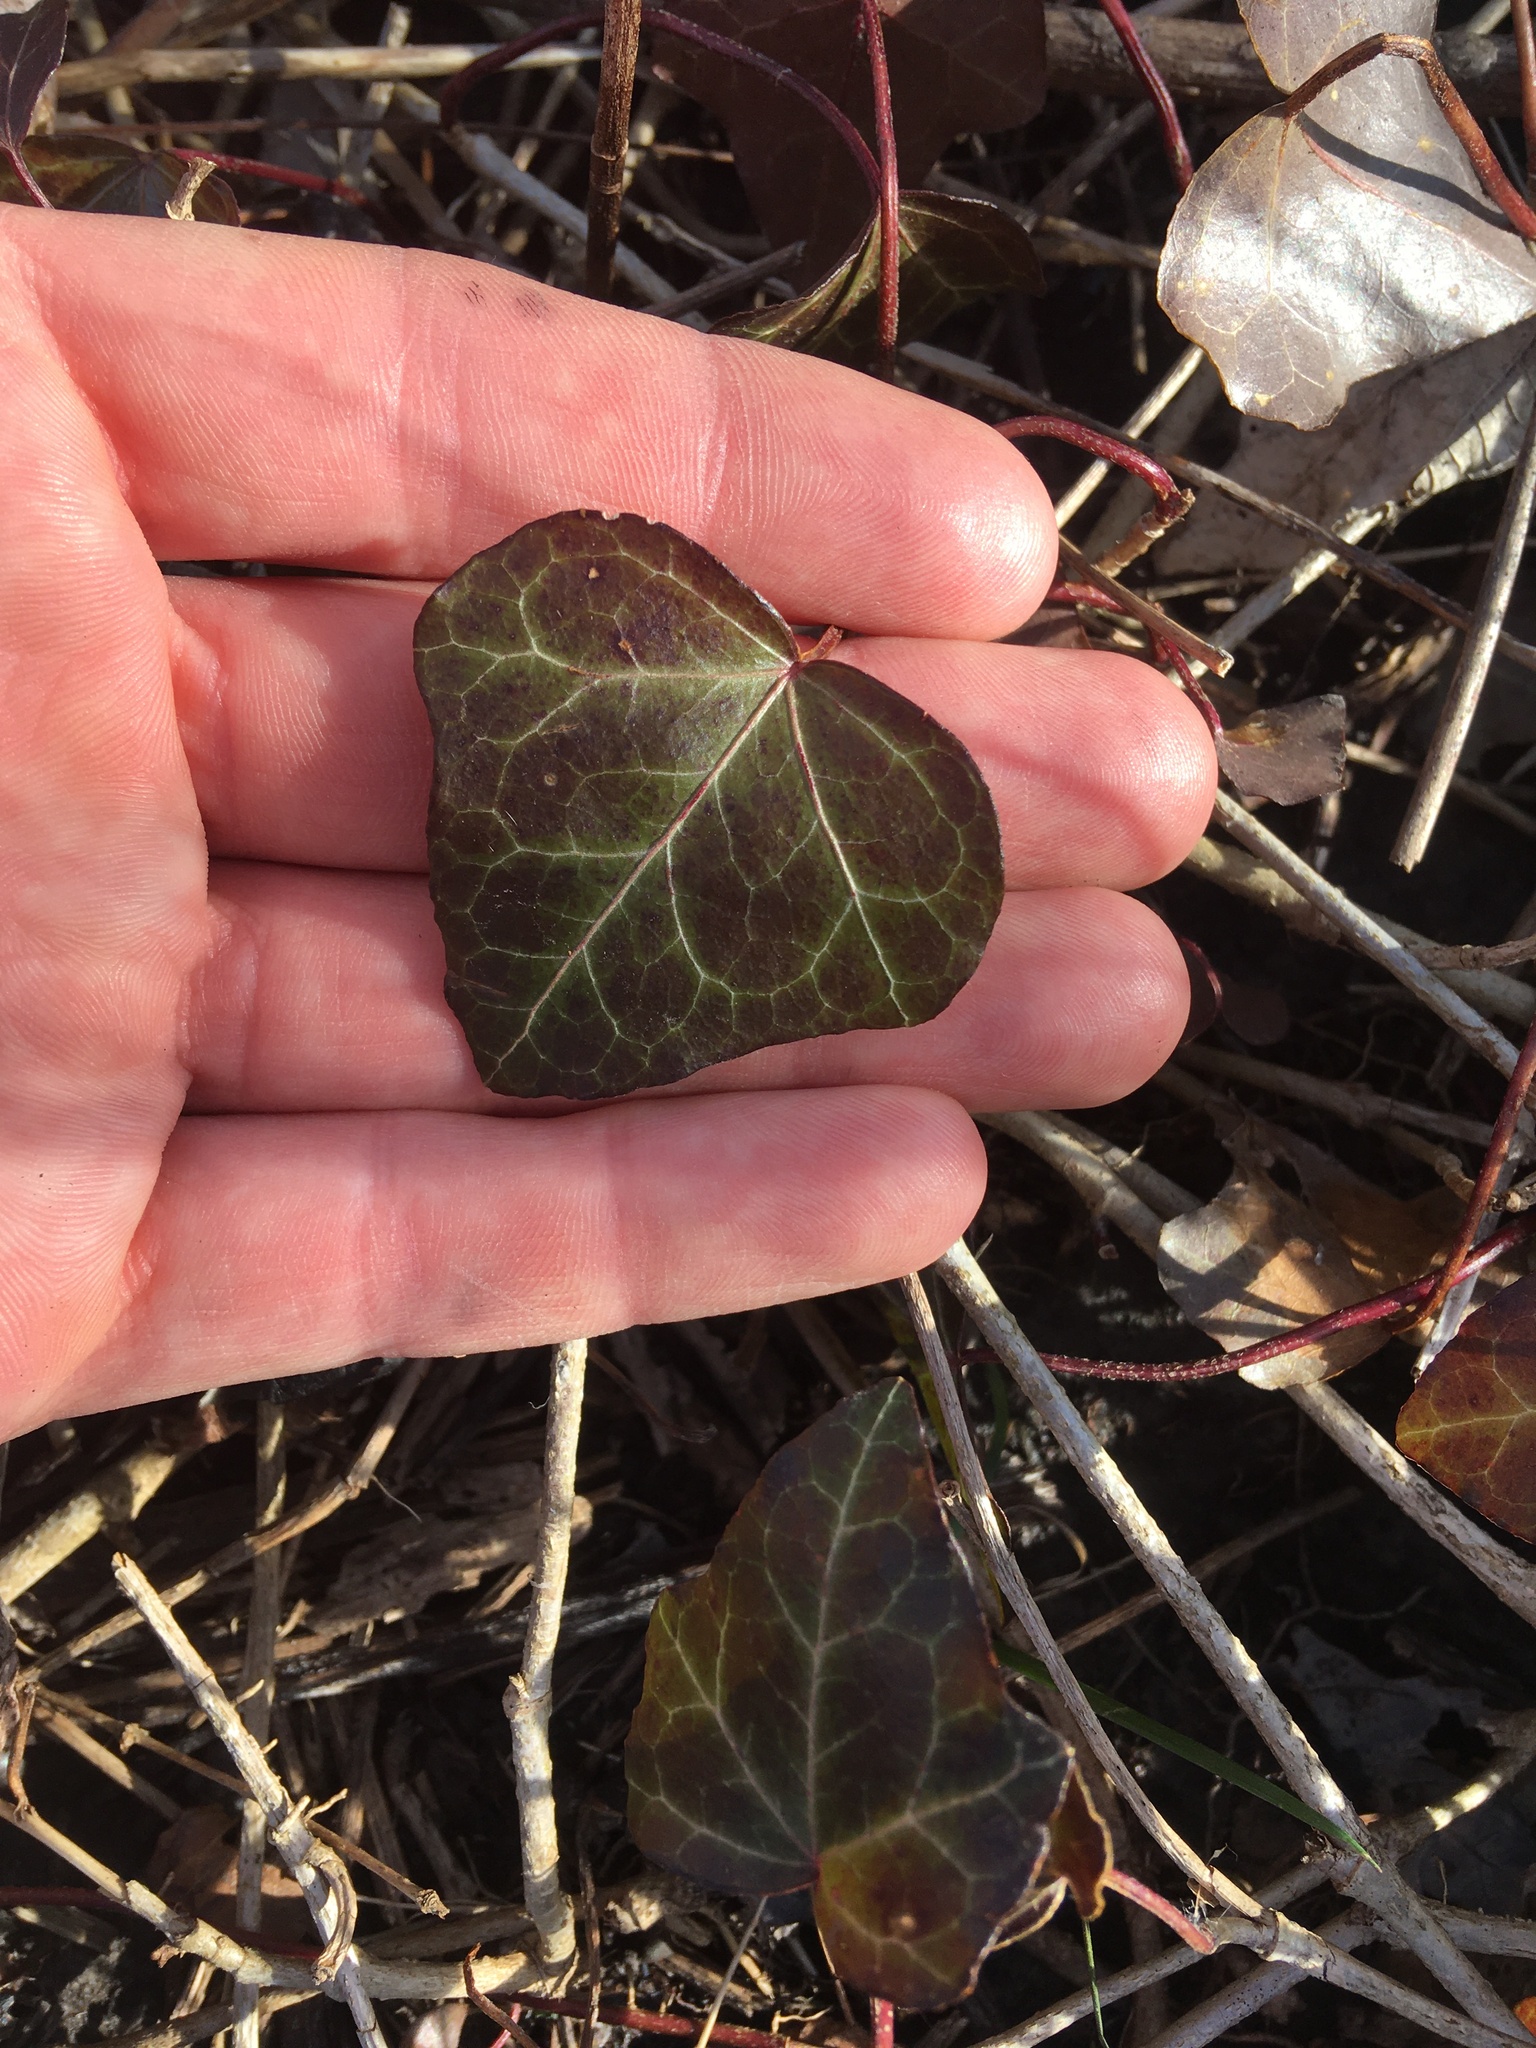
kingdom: Plantae
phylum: Tracheophyta
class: Magnoliopsida
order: Apiales
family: Araliaceae
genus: Hedera
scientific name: Hedera helix
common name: Ivy
